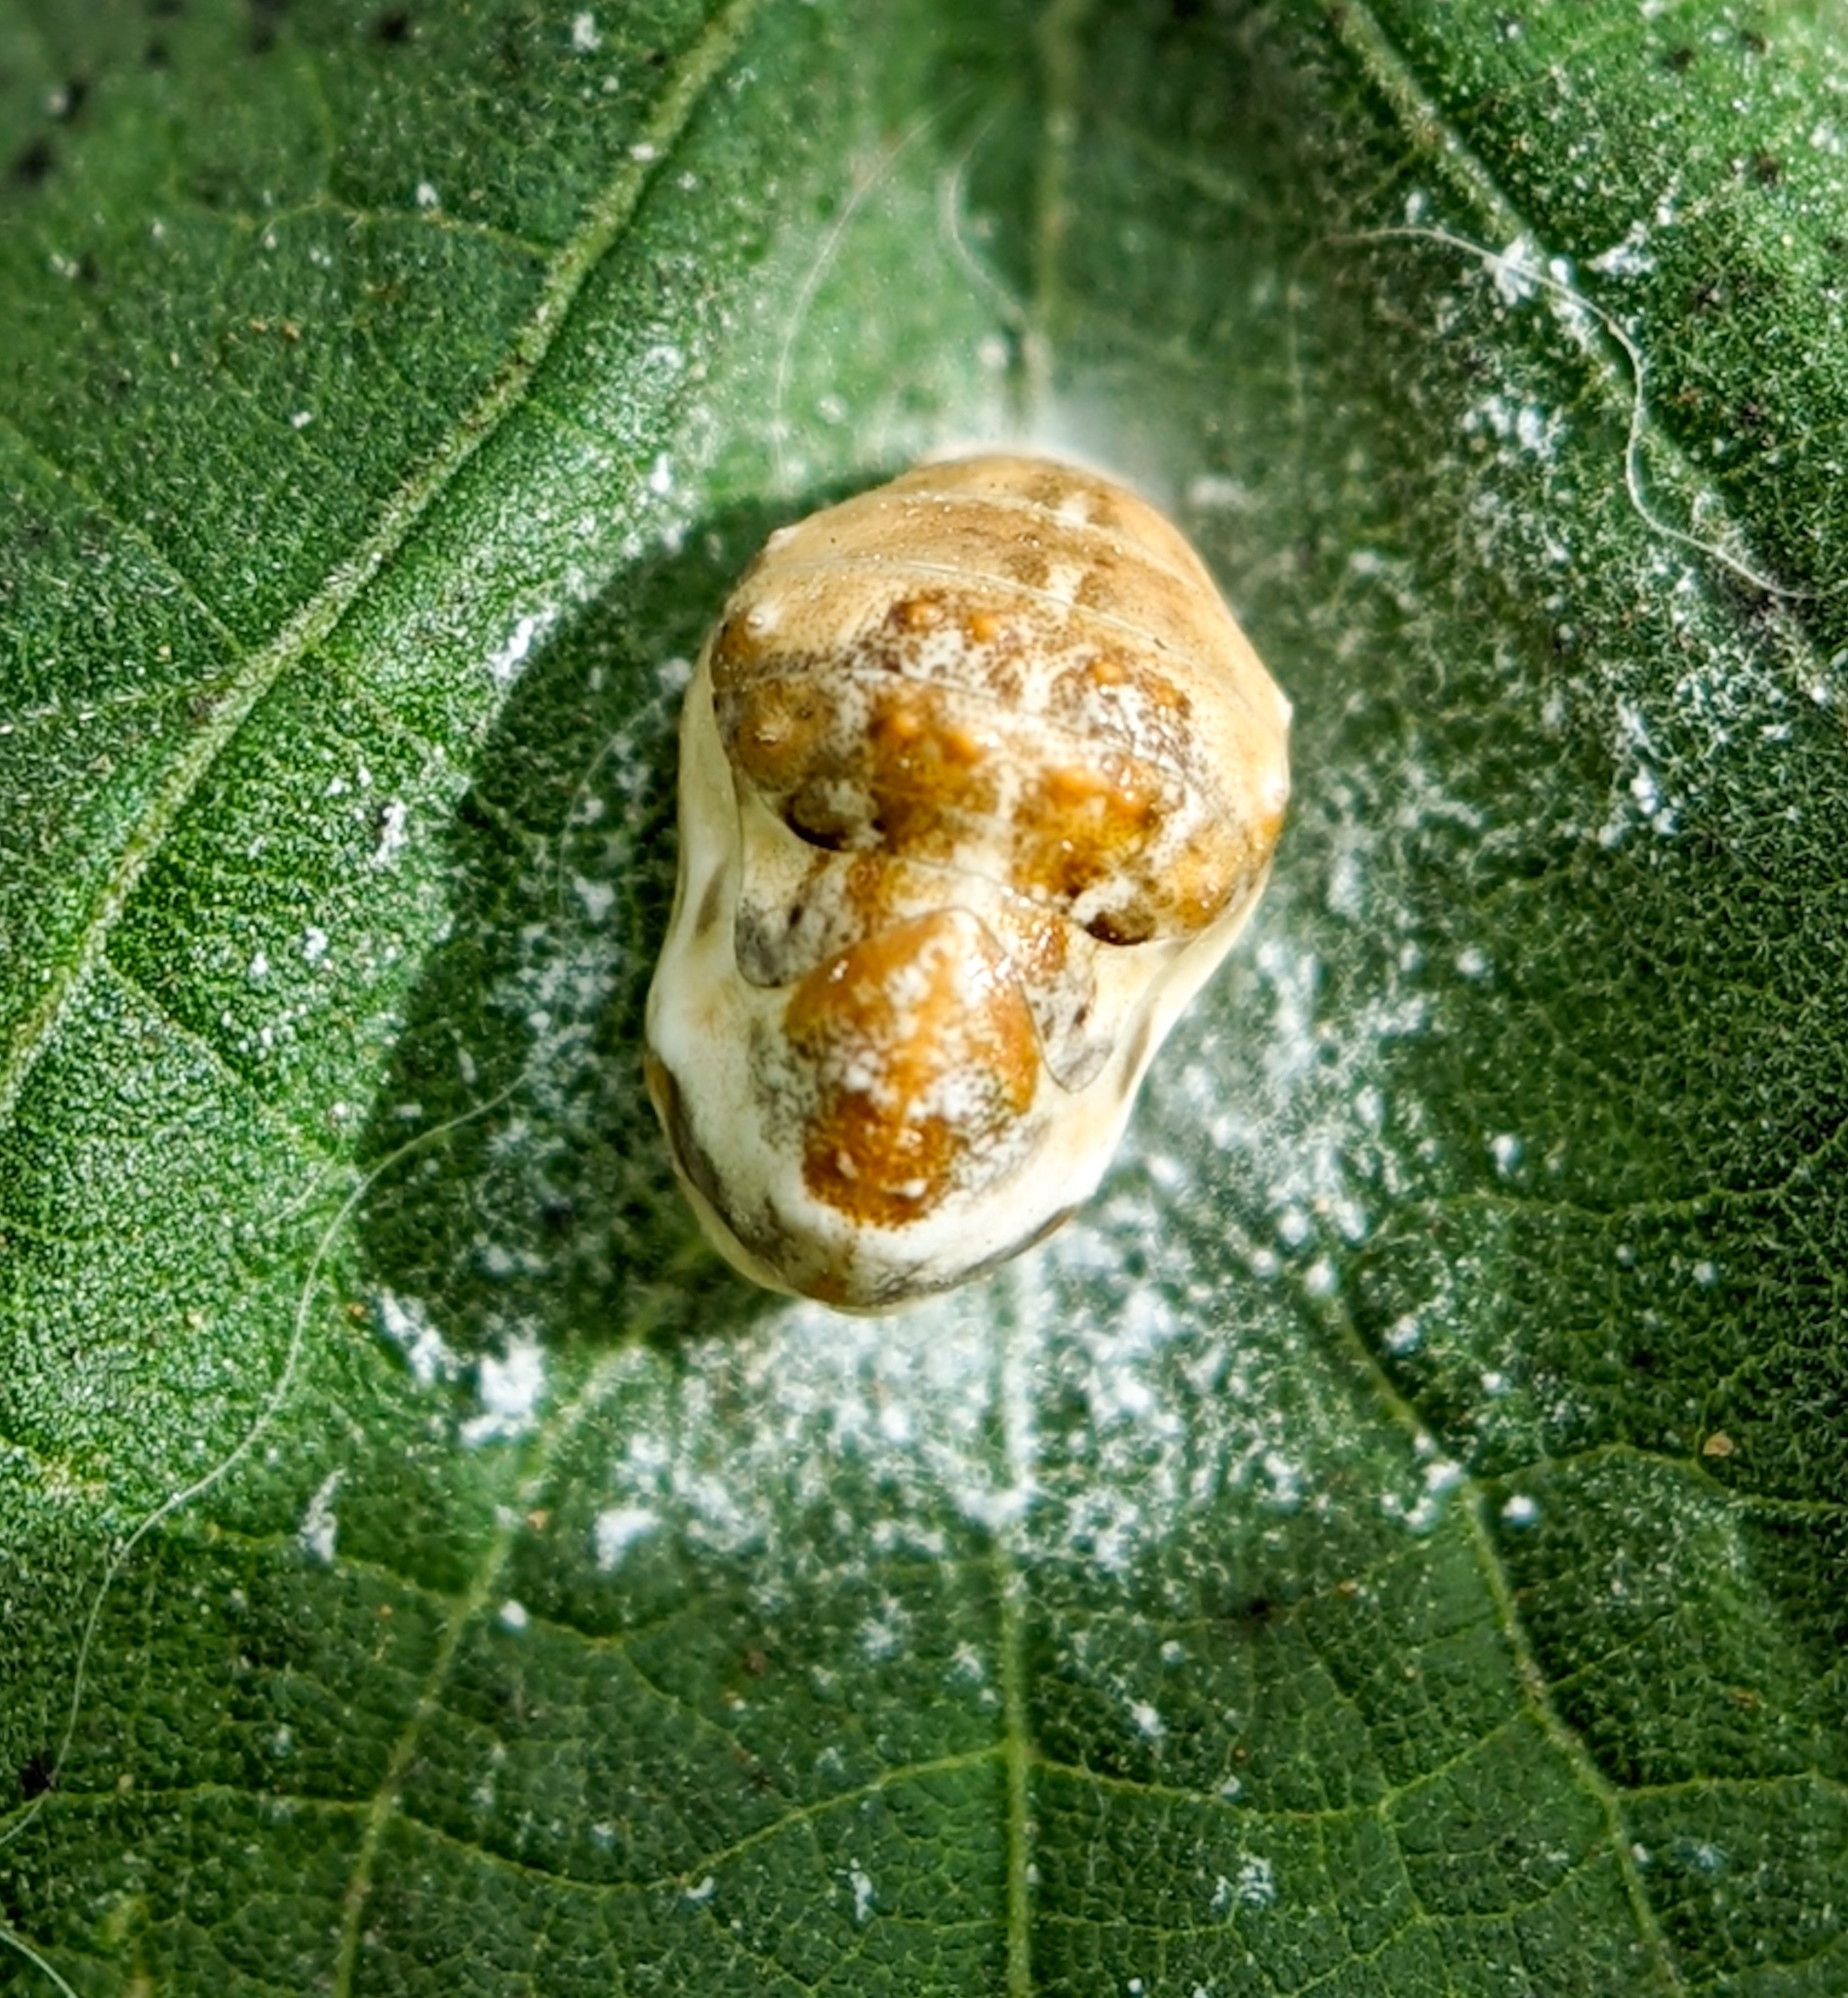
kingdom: Animalia
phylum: Arthropoda
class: Insecta
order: Lepidoptera
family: Lycaenidae
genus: Spalgis
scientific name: Spalgis epius
